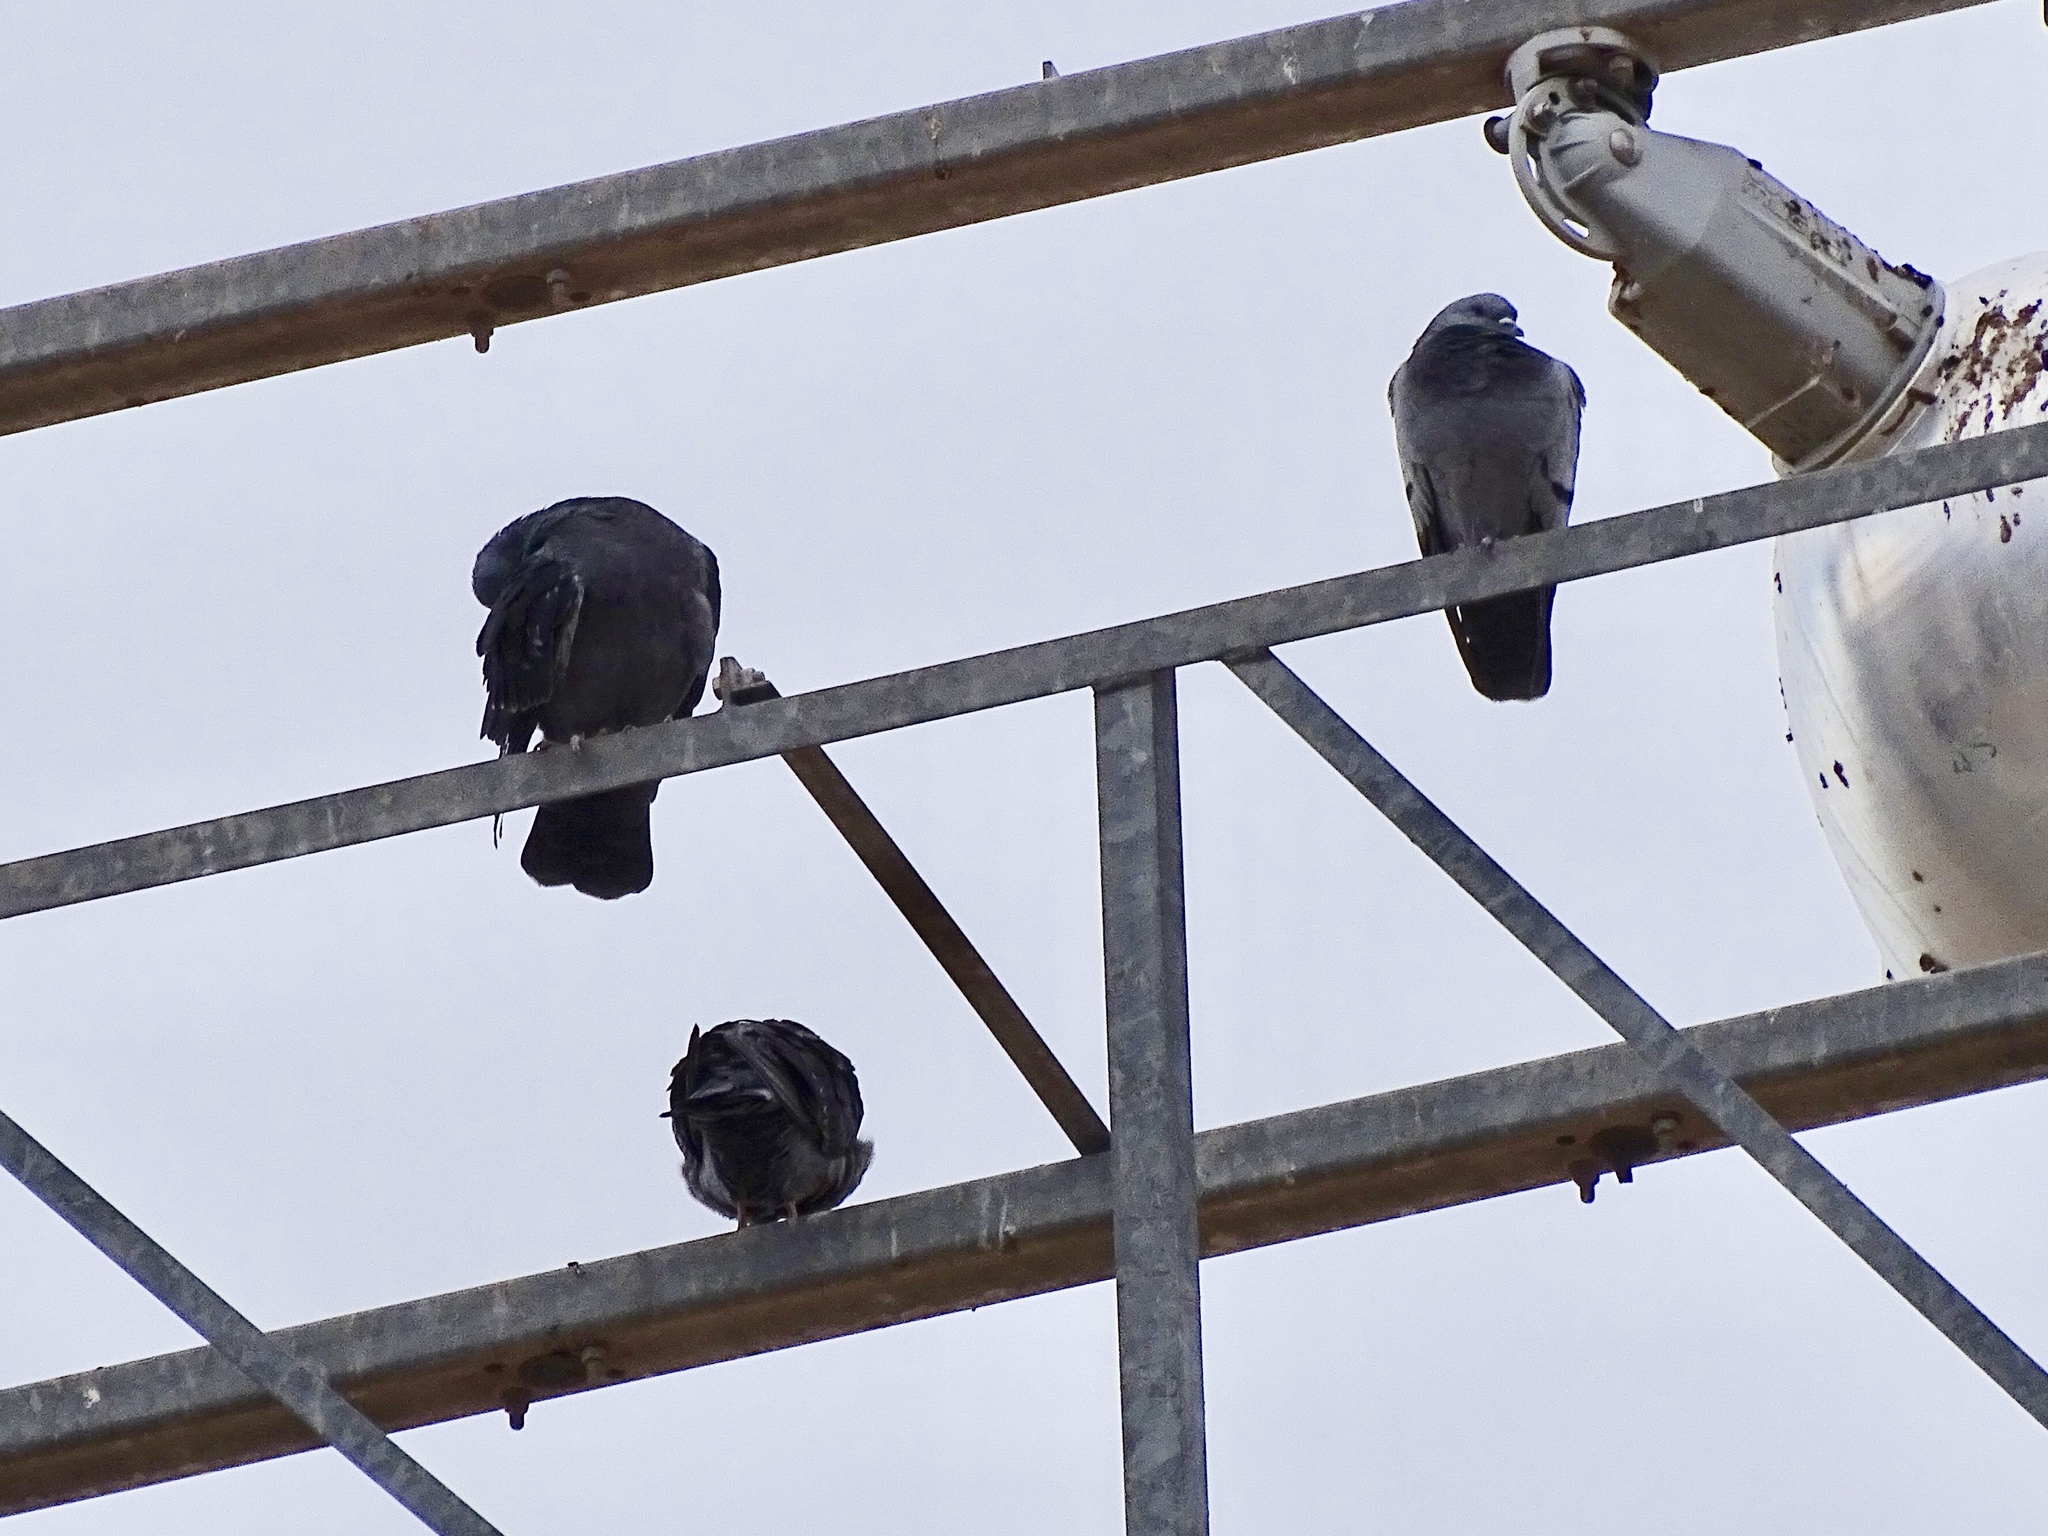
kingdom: Animalia
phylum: Chordata
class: Aves
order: Columbiformes
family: Columbidae
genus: Columba
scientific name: Columba livia
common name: Rock pigeon
